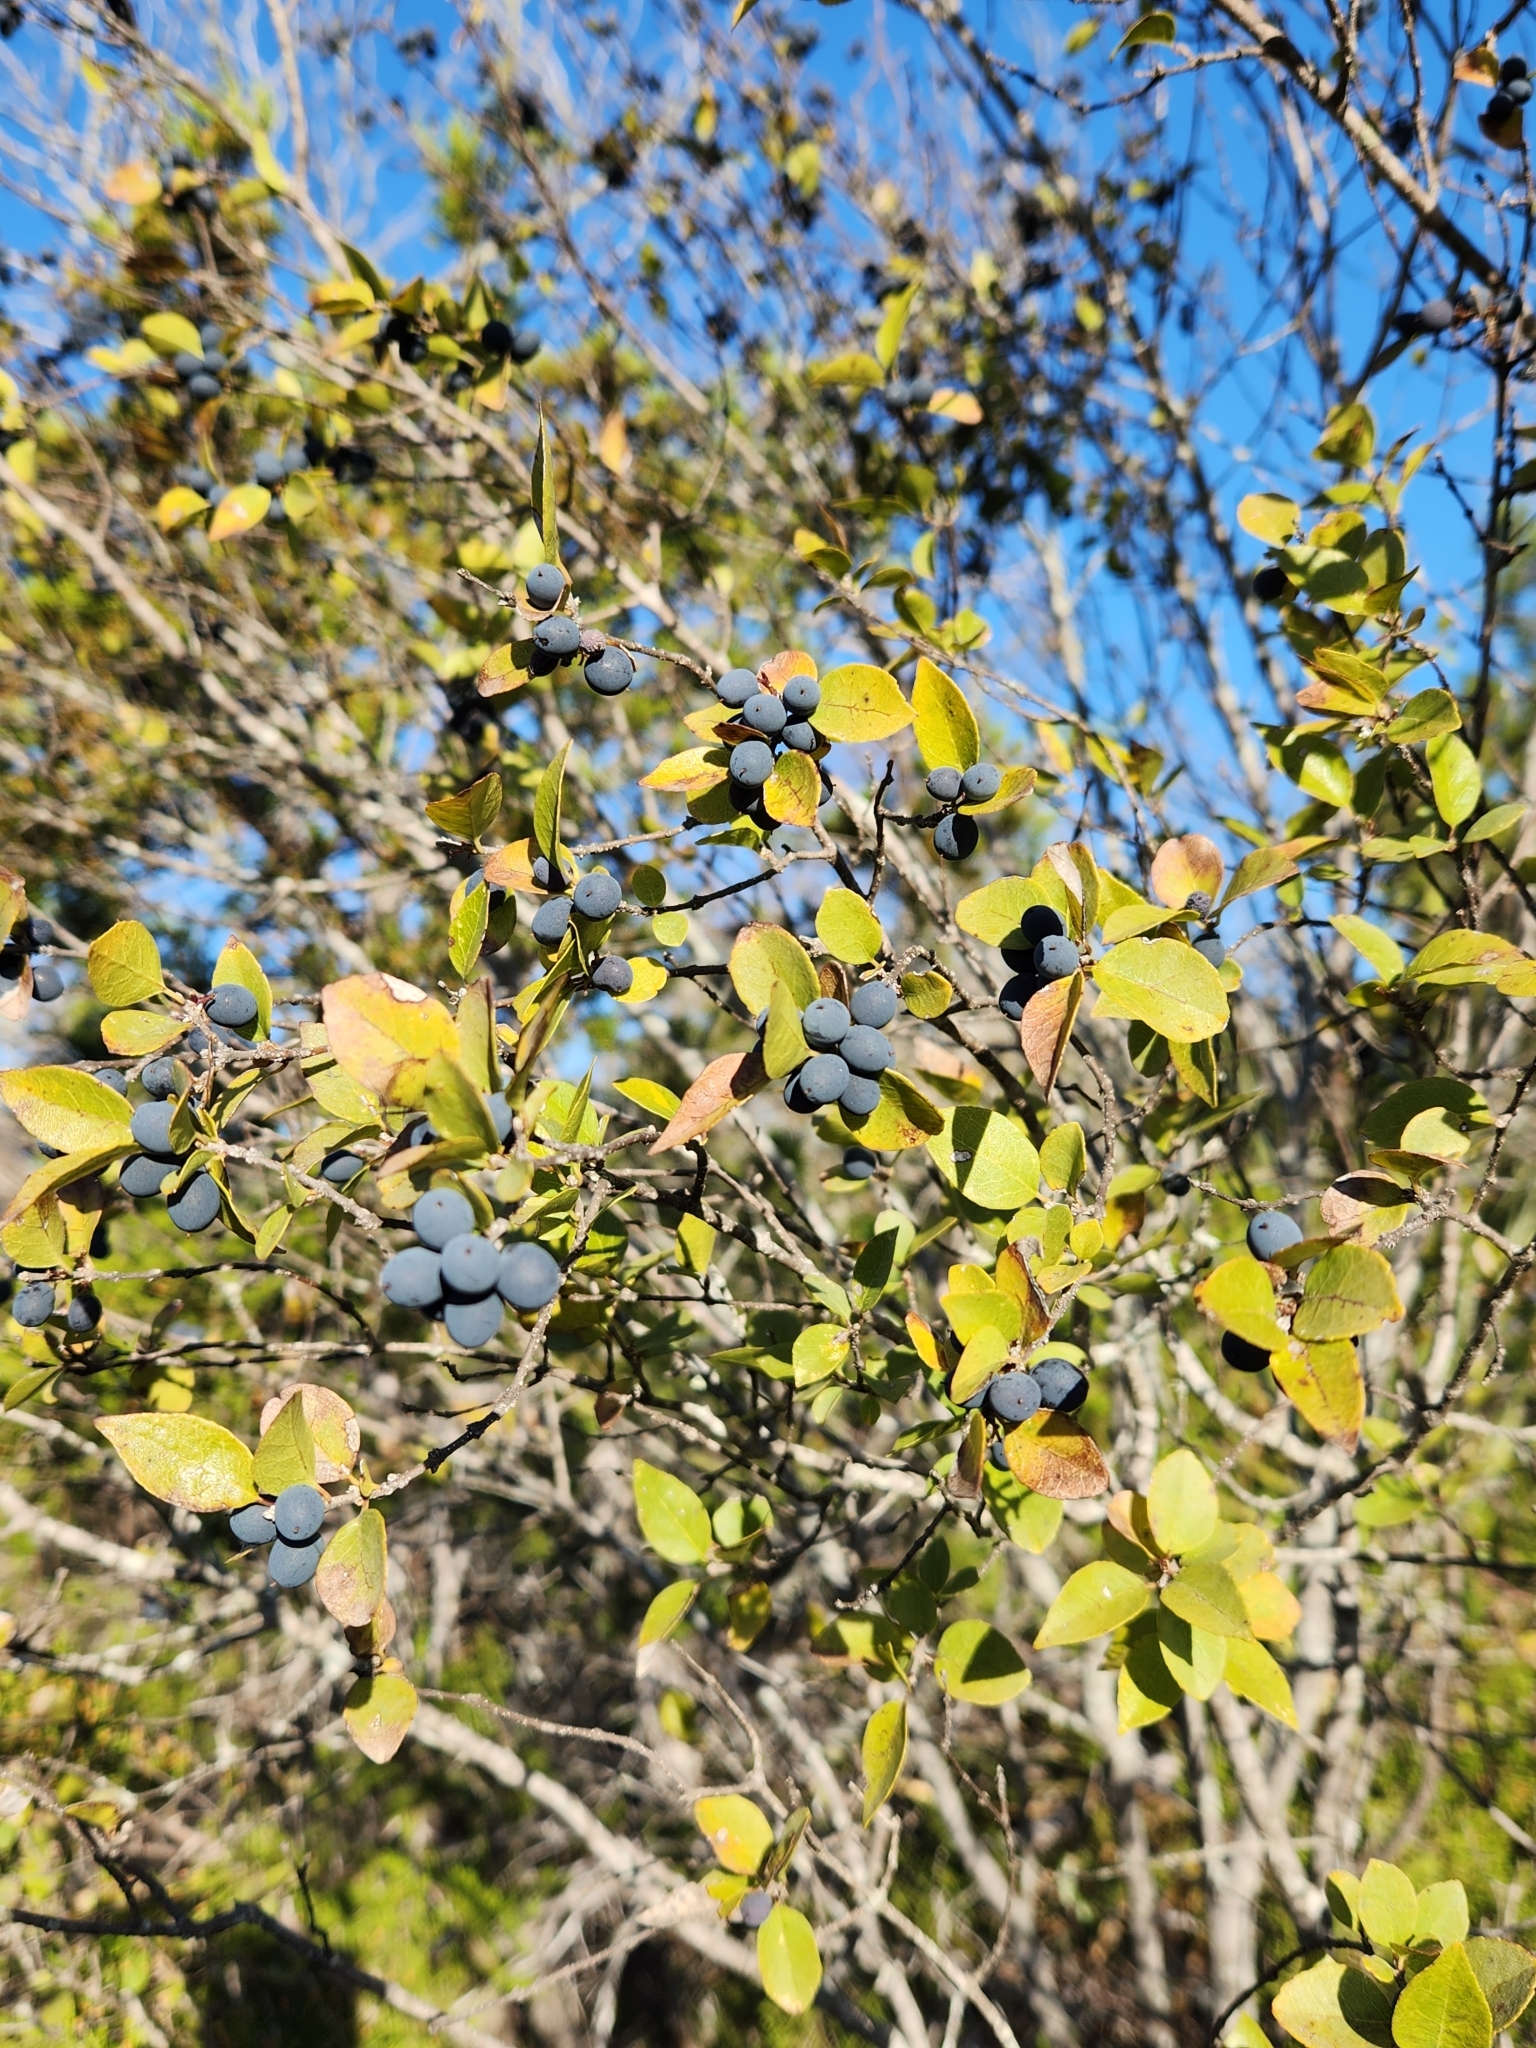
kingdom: Plantae
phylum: Tracheophyta
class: Magnoliopsida
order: Lamiales
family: Oleaceae
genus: Forestiera
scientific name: Forestiera reticulata
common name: Netleaf swamp-privet
